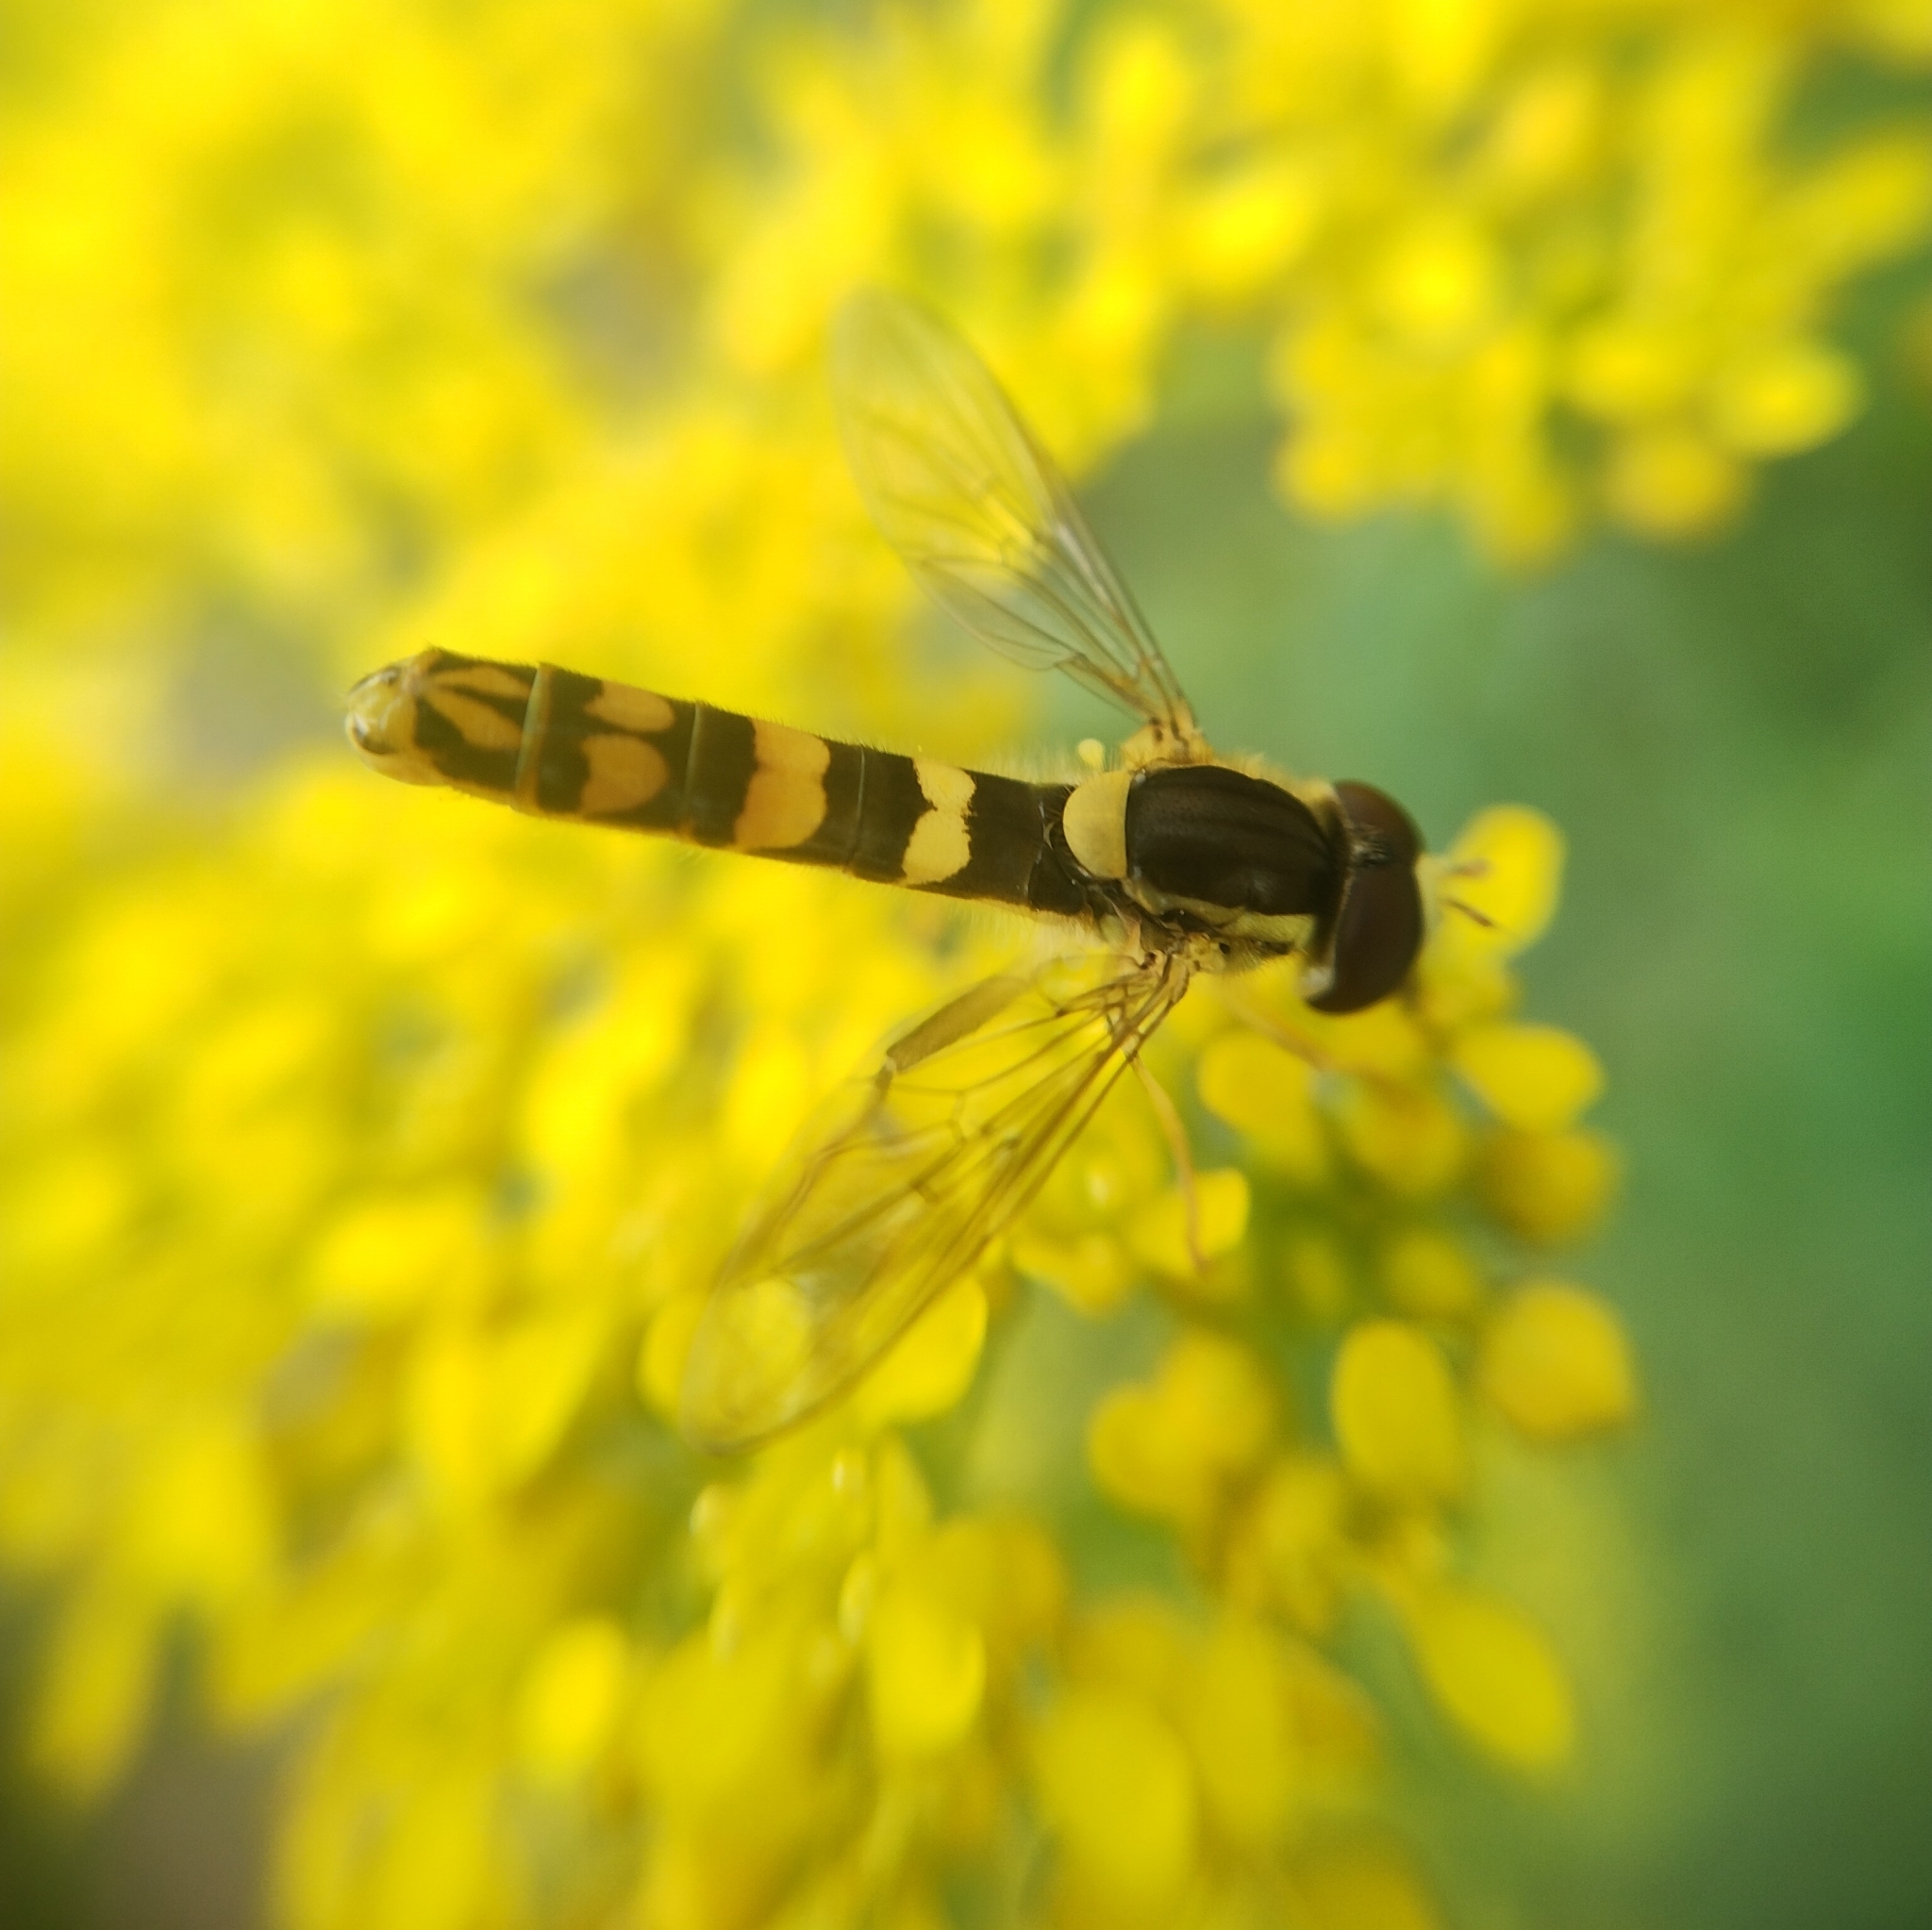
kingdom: Animalia
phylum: Arthropoda
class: Insecta
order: Diptera
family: Syrphidae
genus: Sphaerophoria
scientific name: Sphaerophoria scripta
